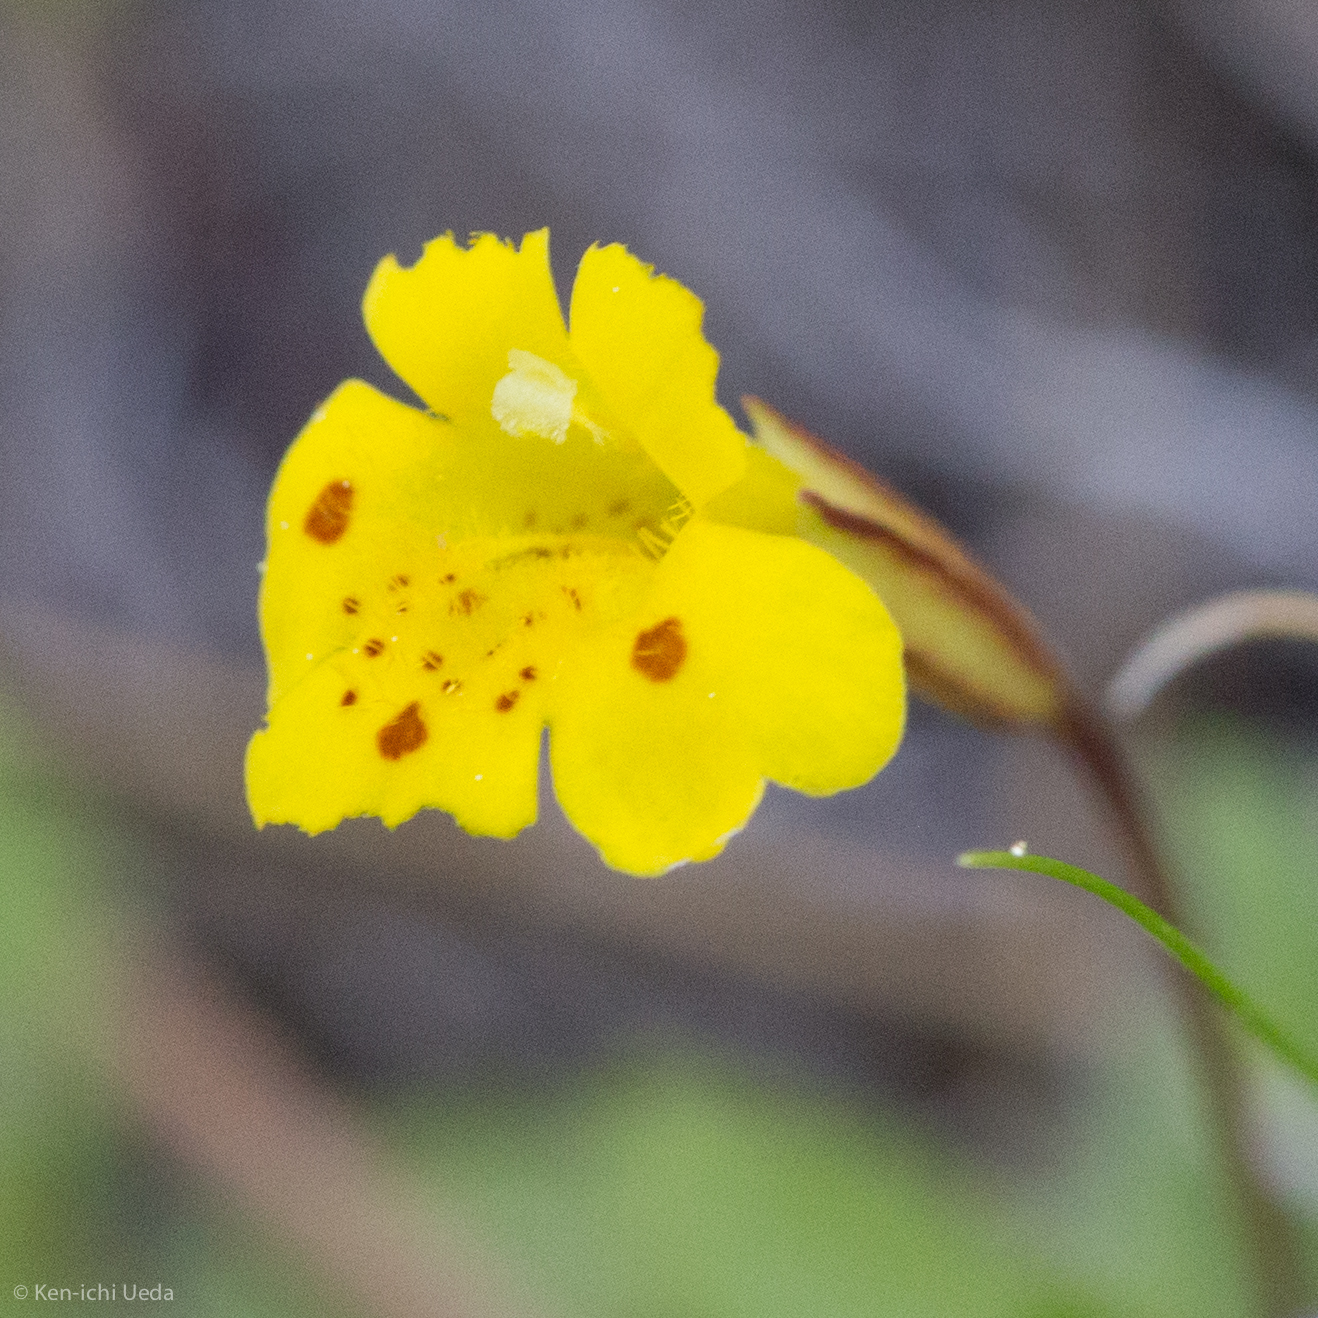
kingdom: Plantae
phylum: Tracheophyta
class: Magnoliopsida
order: Lamiales
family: Phrymaceae
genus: Erythranthe
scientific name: Erythranthe primuloides
